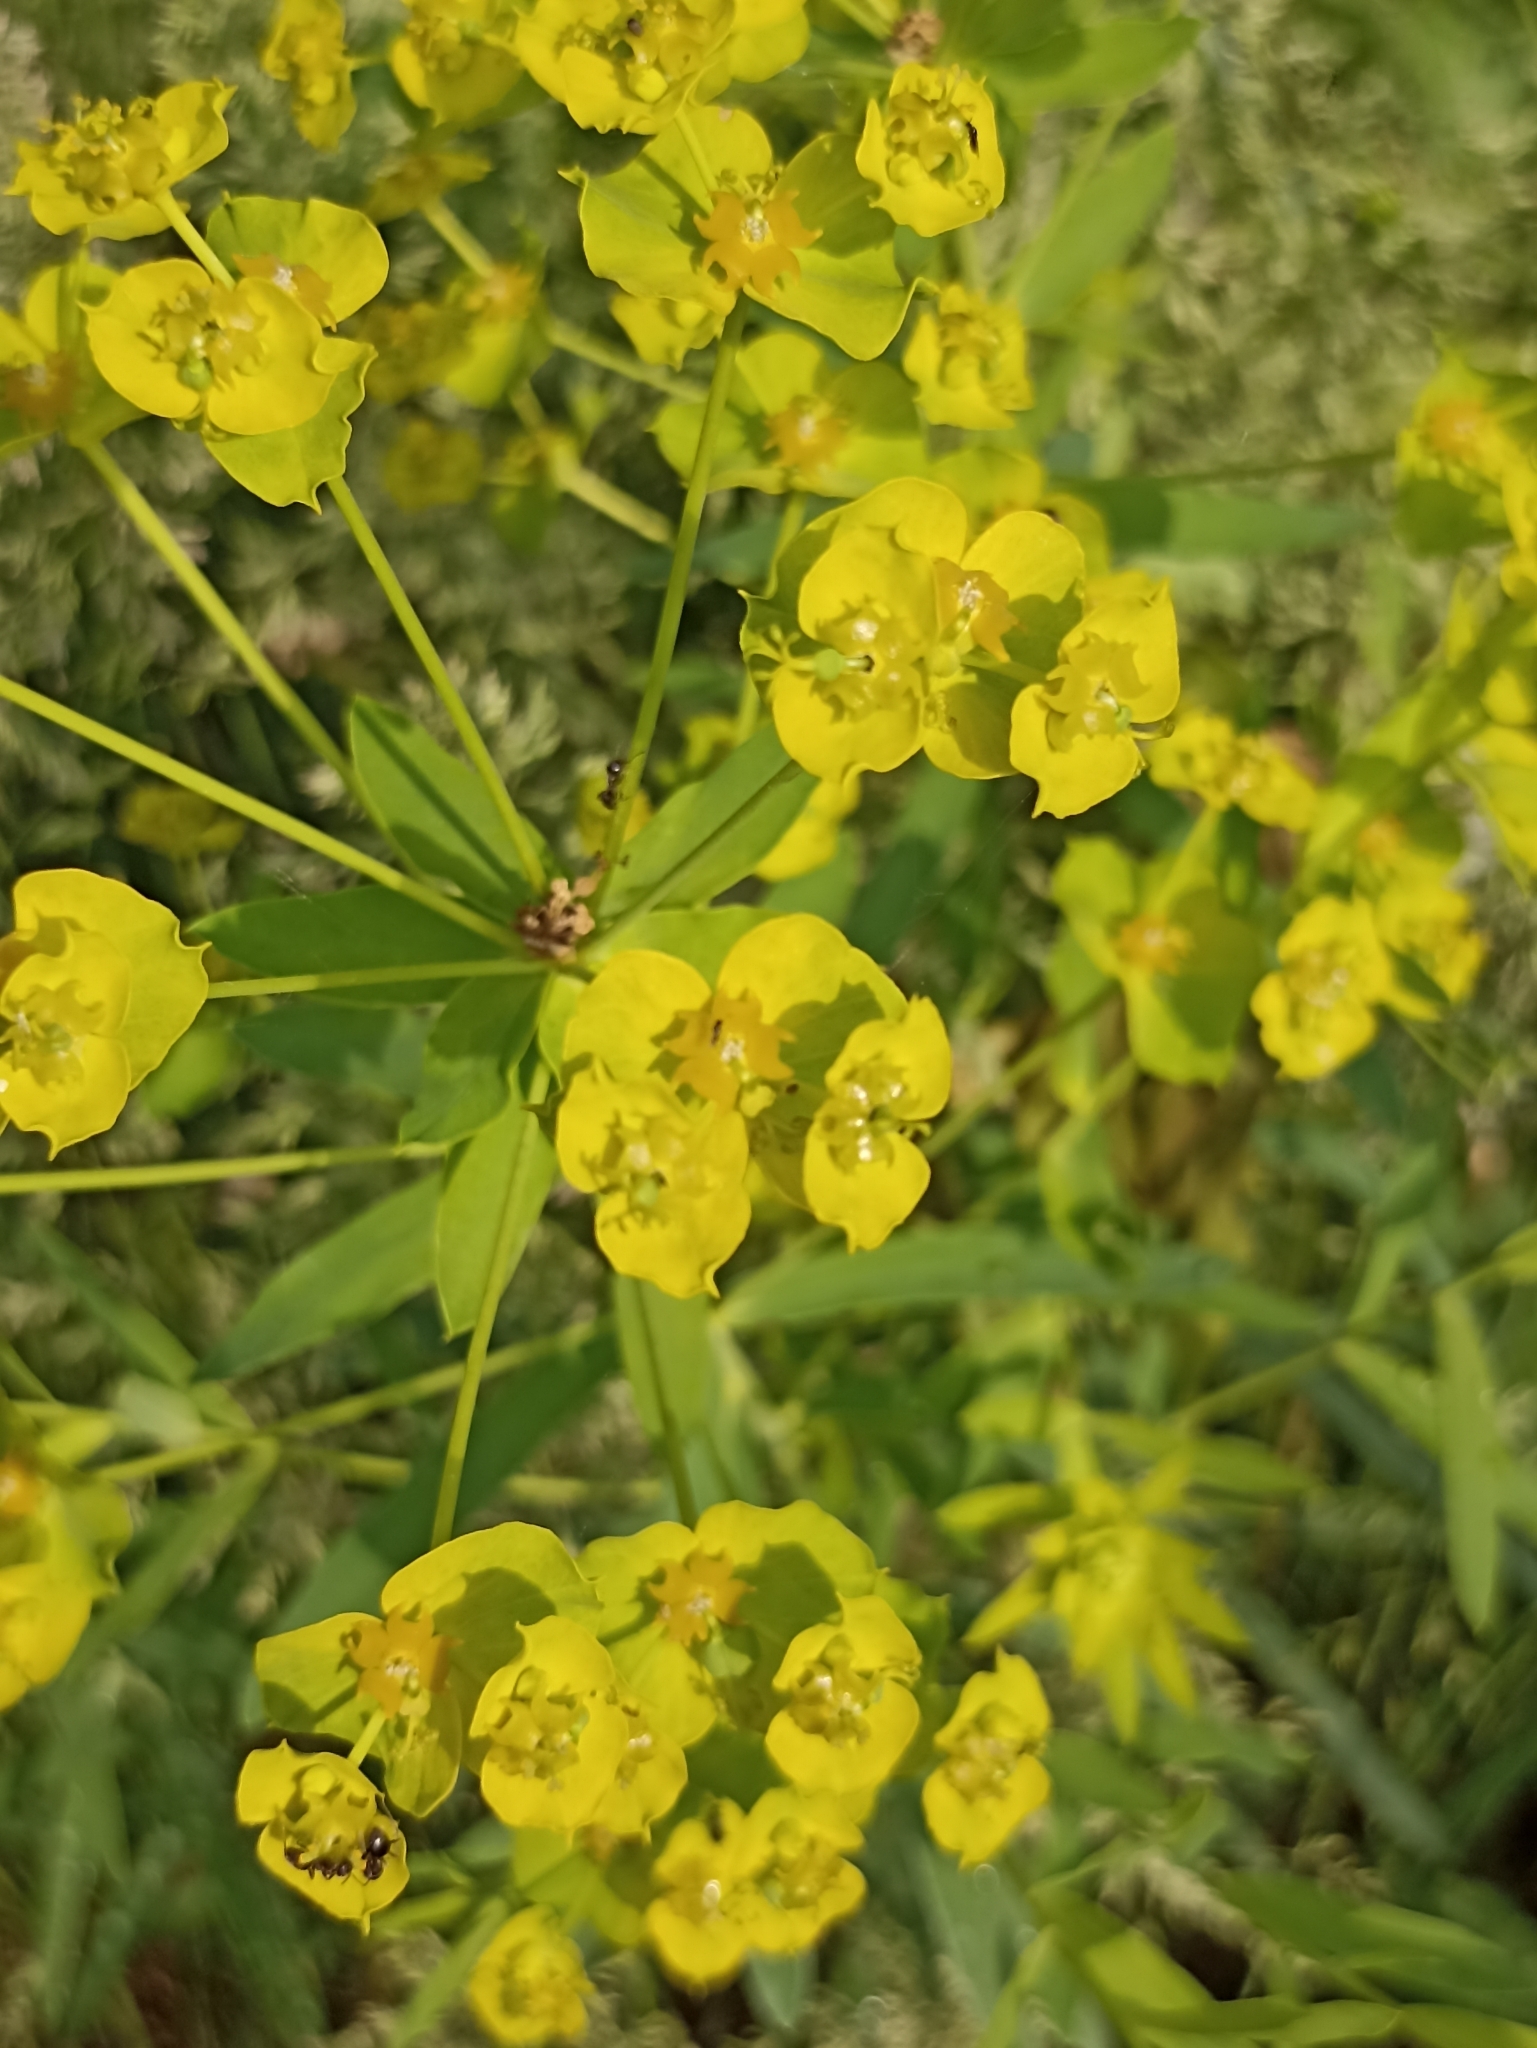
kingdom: Plantae
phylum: Tracheophyta
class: Magnoliopsida
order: Malpighiales
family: Euphorbiaceae
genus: Euphorbia
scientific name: Euphorbia virgata
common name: Leafy spurge
